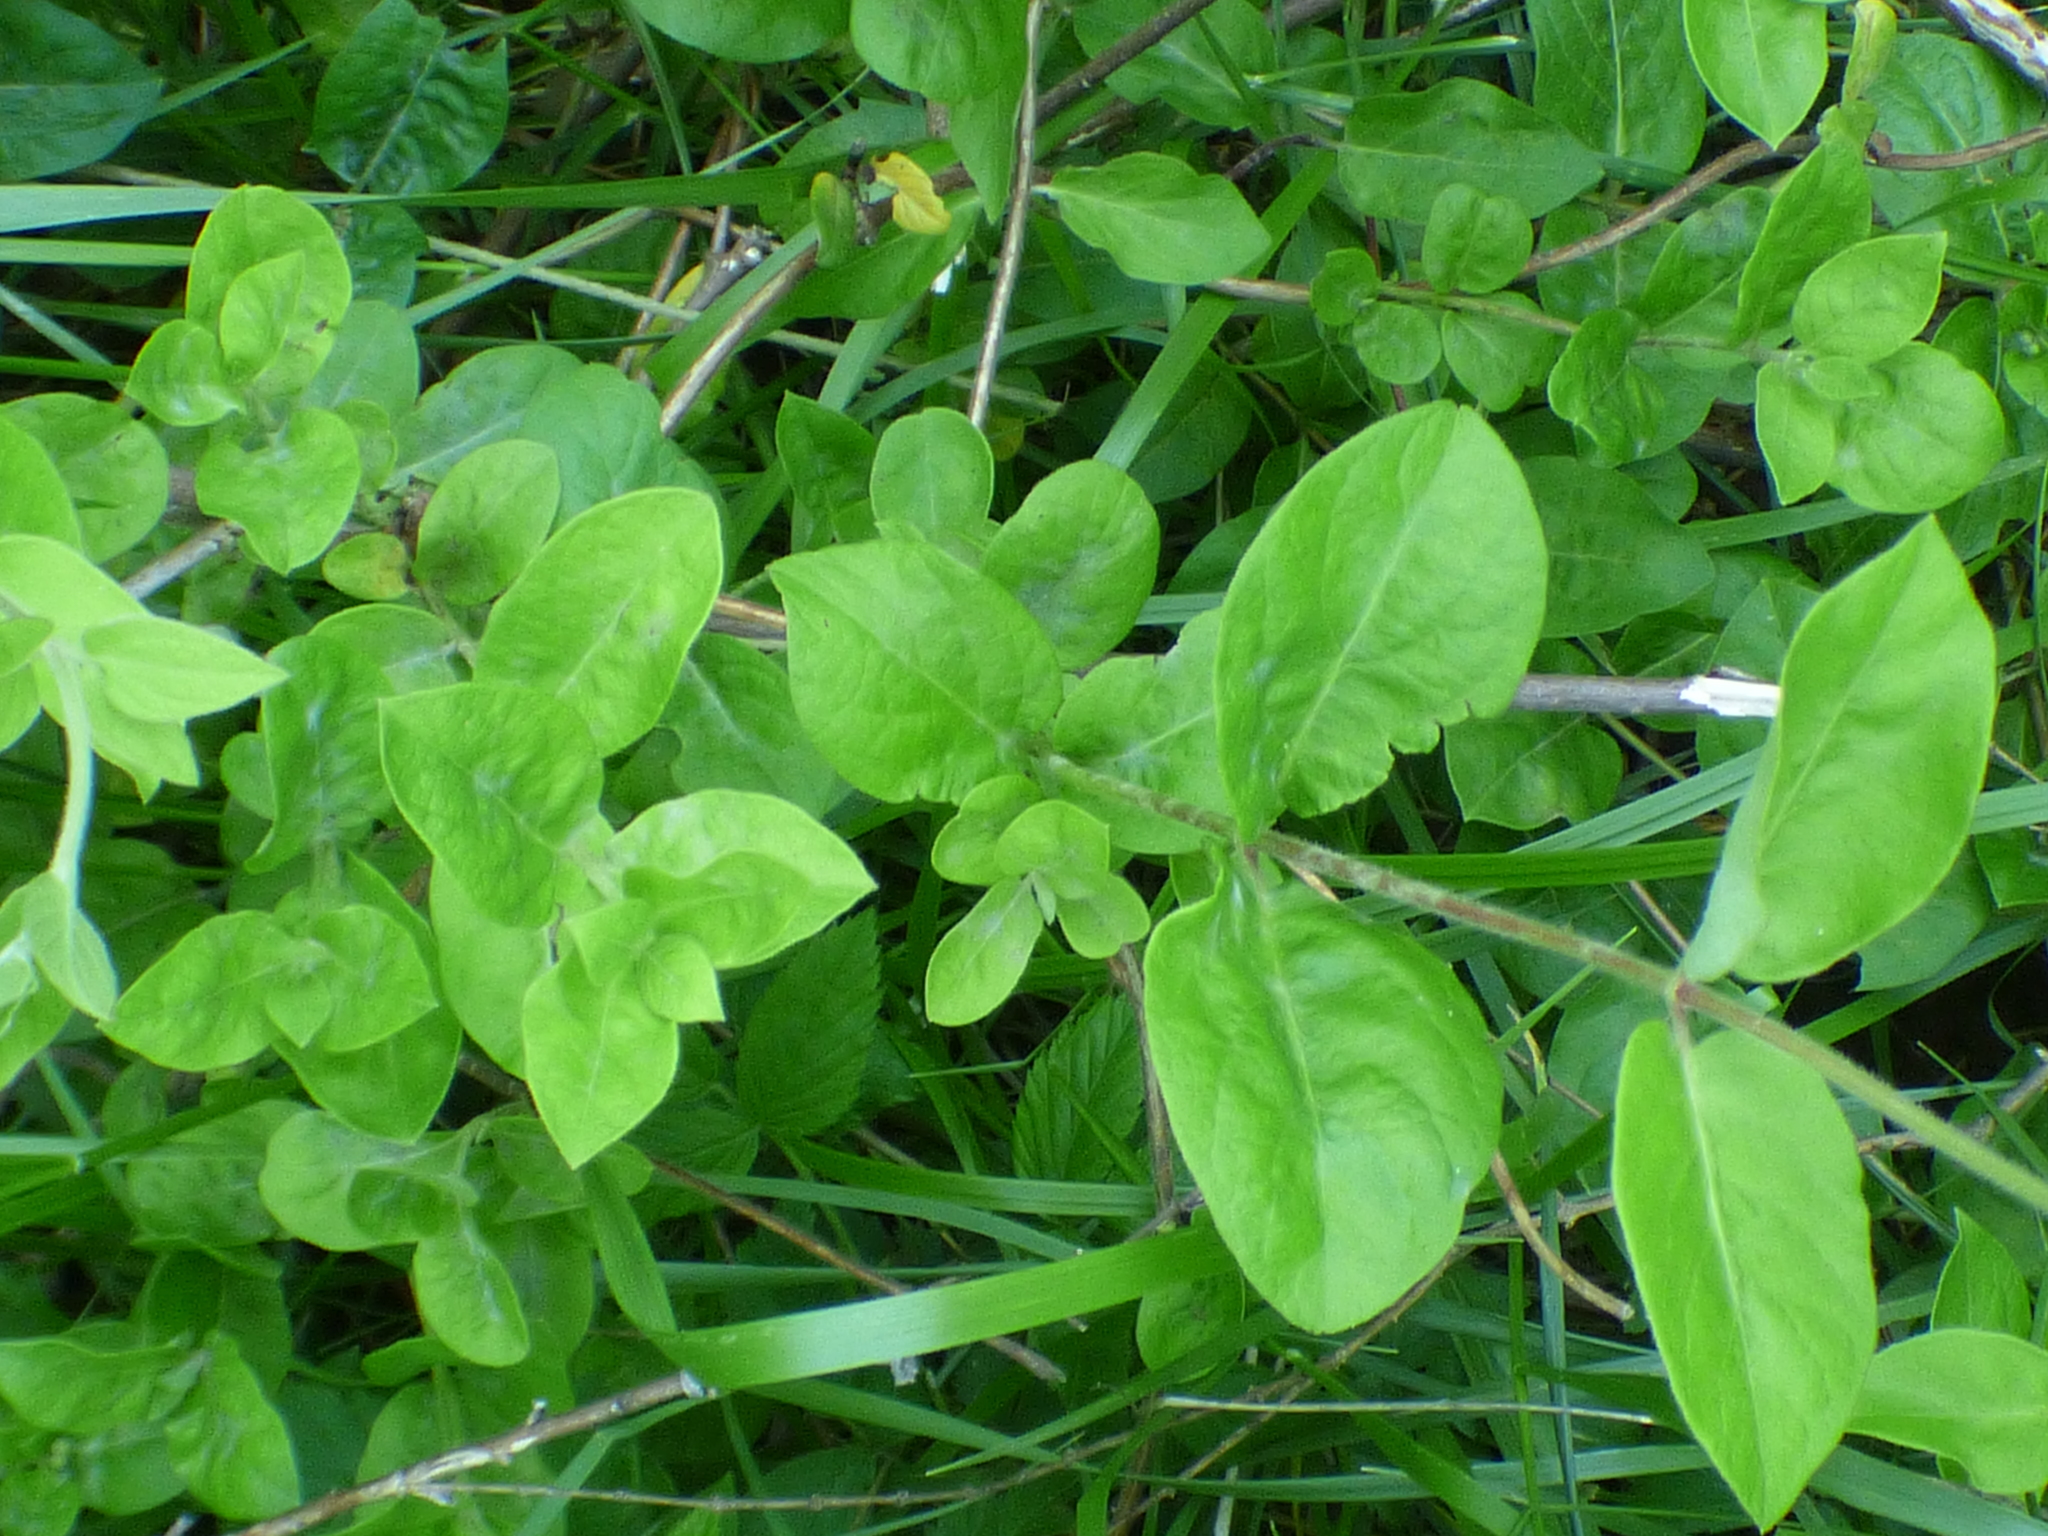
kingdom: Plantae
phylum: Tracheophyta
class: Magnoliopsida
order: Dipsacales
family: Caprifoliaceae
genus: Lonicera
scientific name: Lonicera japonica
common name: Japanese honeysuckle
